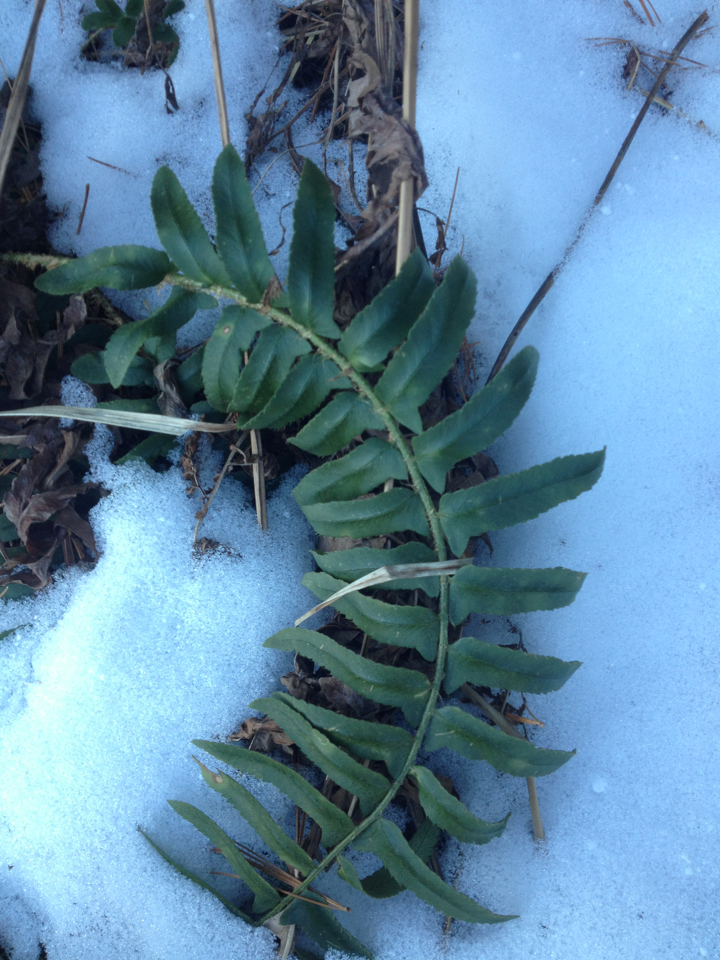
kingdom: Plantae
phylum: Tracheophyta
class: Polypodiopsida
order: Polypodiales
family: Dryopteridaceae
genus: Polystichum
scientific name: Polystichum acrostichoides
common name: Christmas fern
